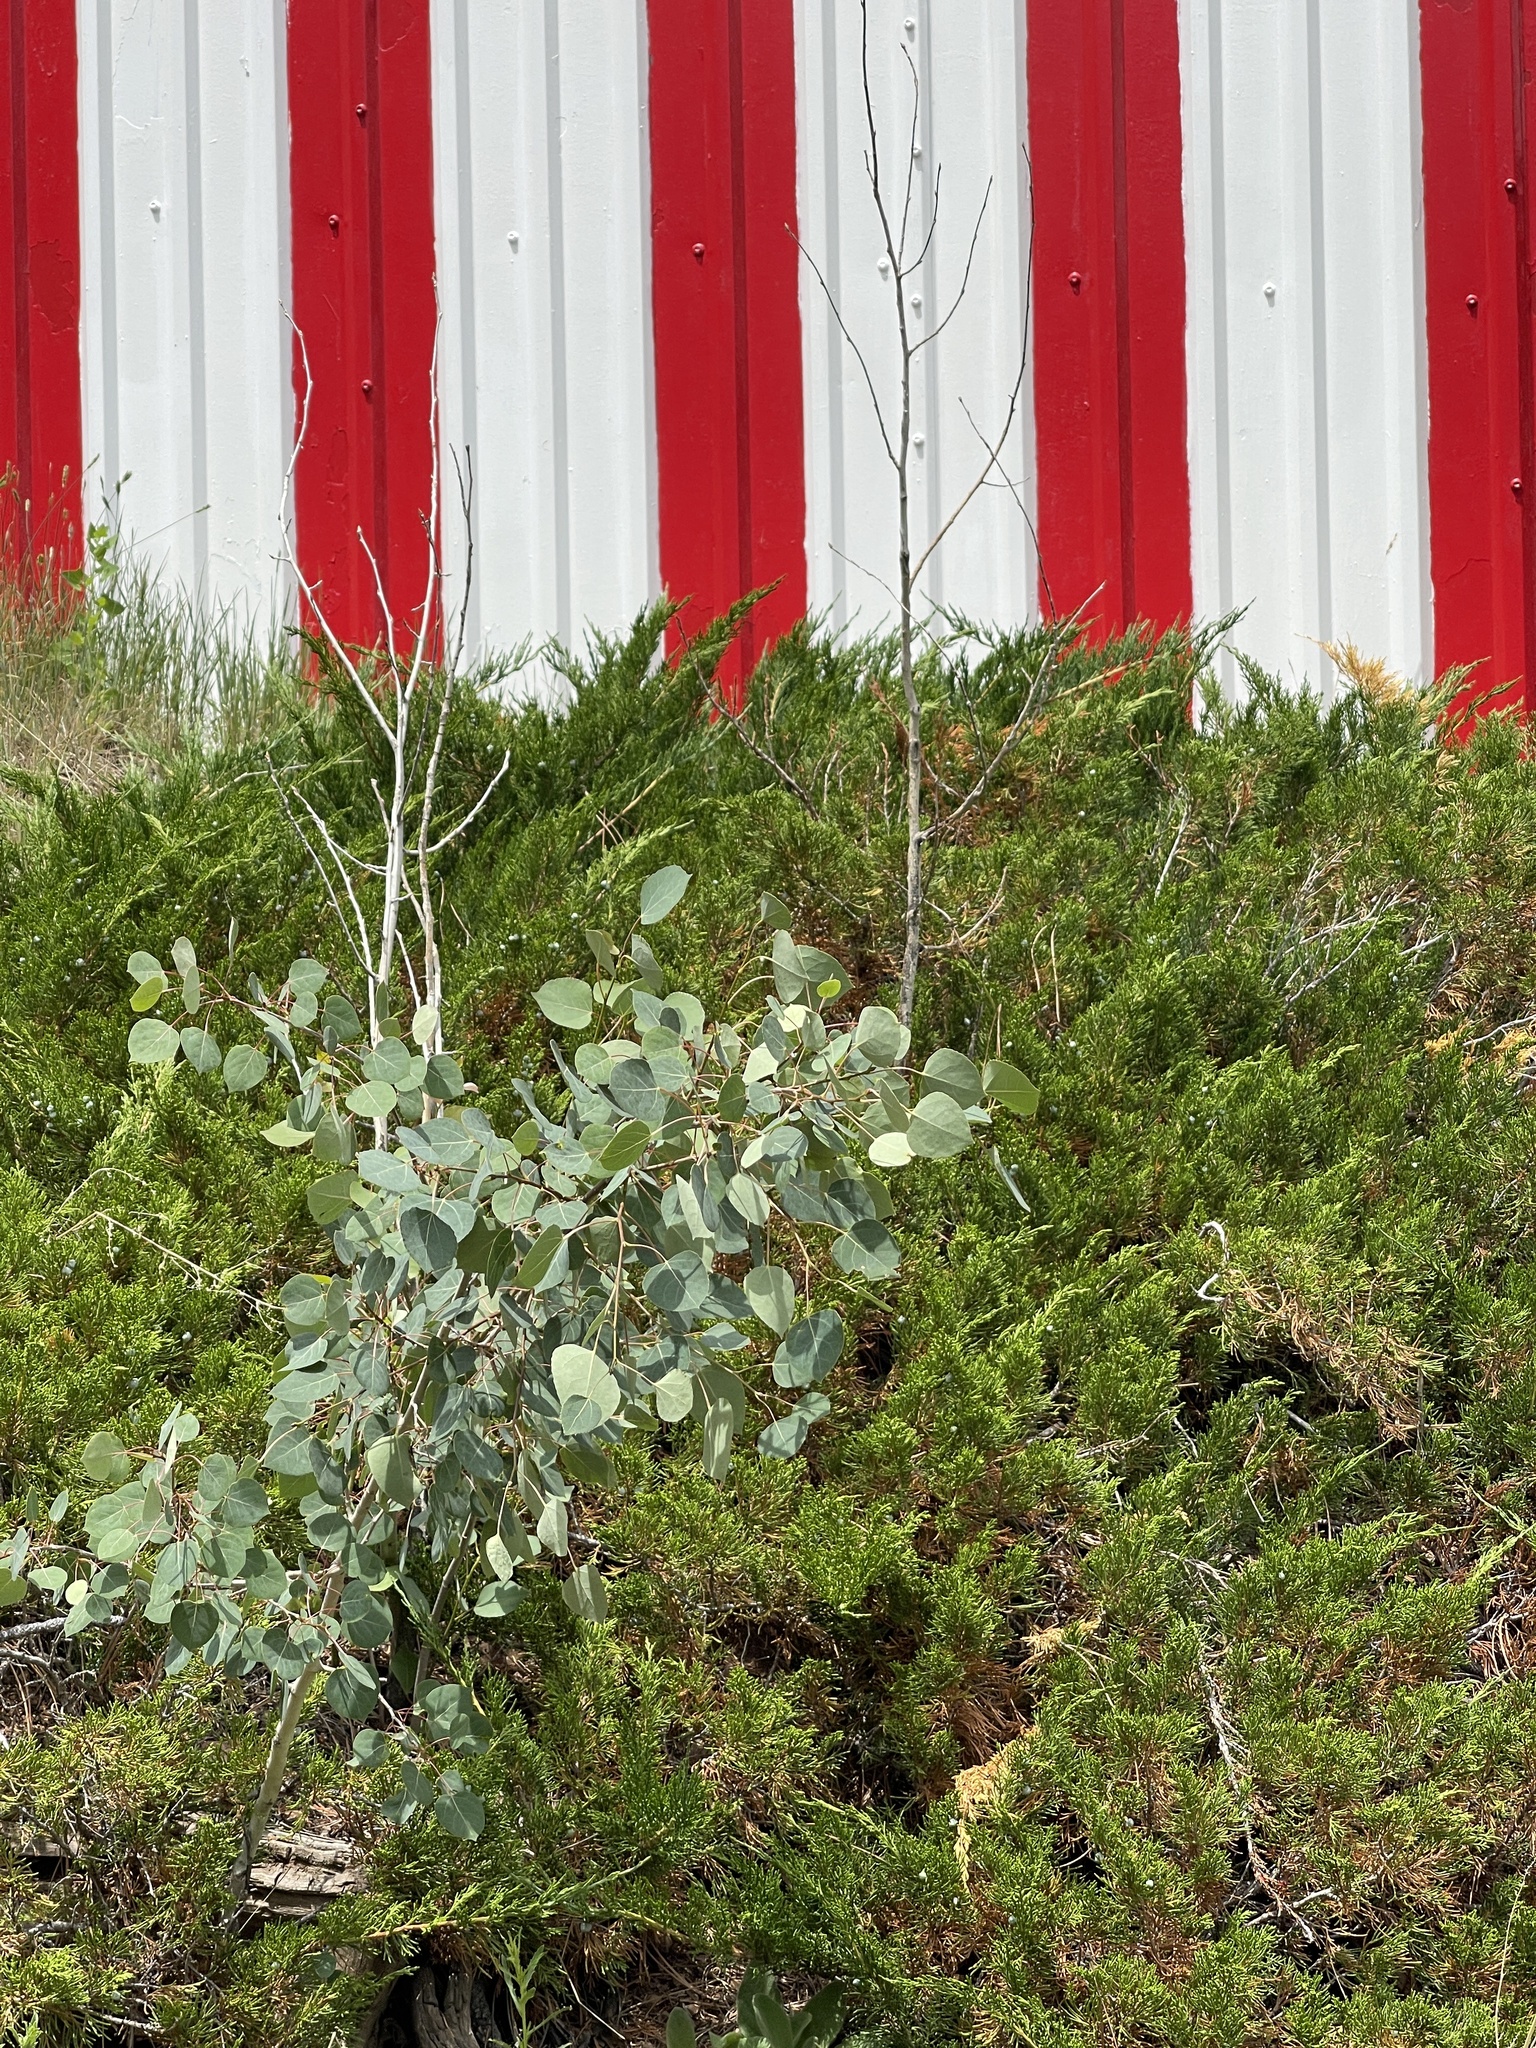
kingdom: Plantae
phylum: Tracheophyta
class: Magnoliopsida
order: Malpighiales
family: Salicaceae
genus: Populus
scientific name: Populus tremuloides
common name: Quaking aspen
